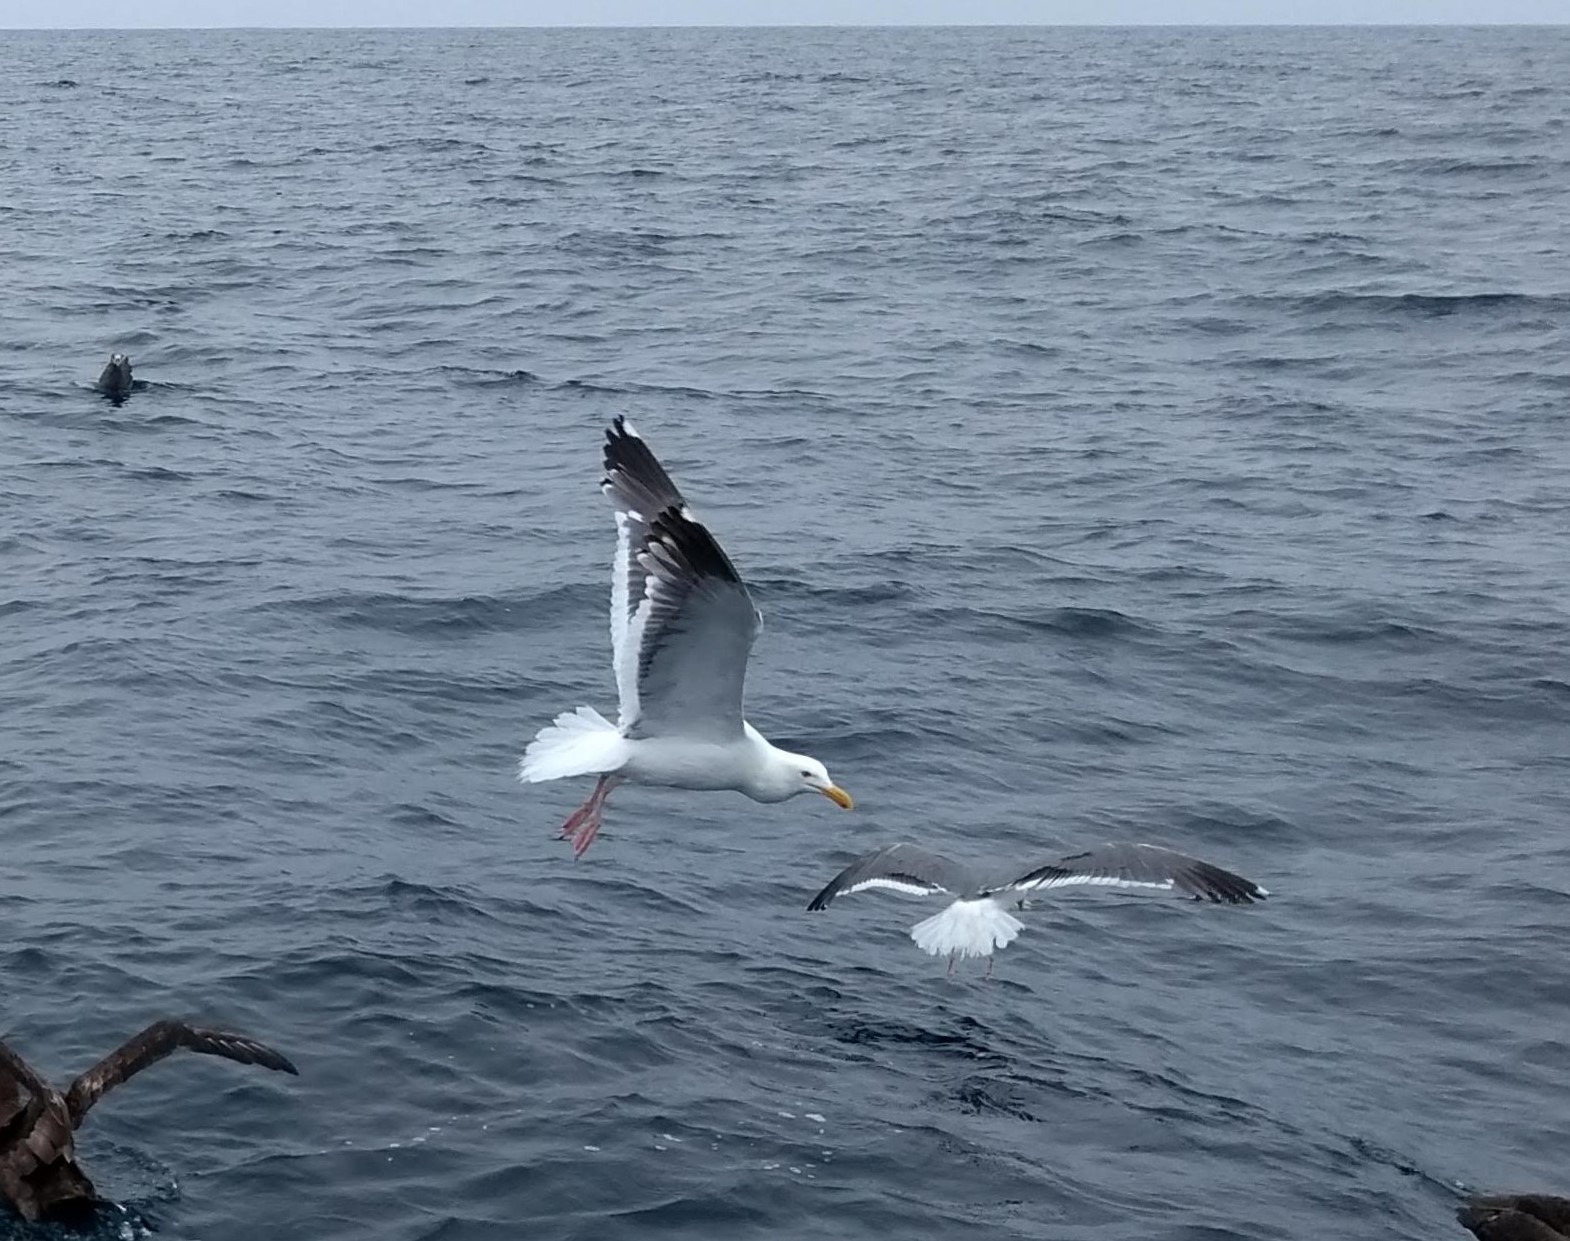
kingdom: Animalia
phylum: Chordata
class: Aves
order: Charadriiformes
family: Laridae
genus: Larus
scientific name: Larus occidentalis
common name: Western gull
